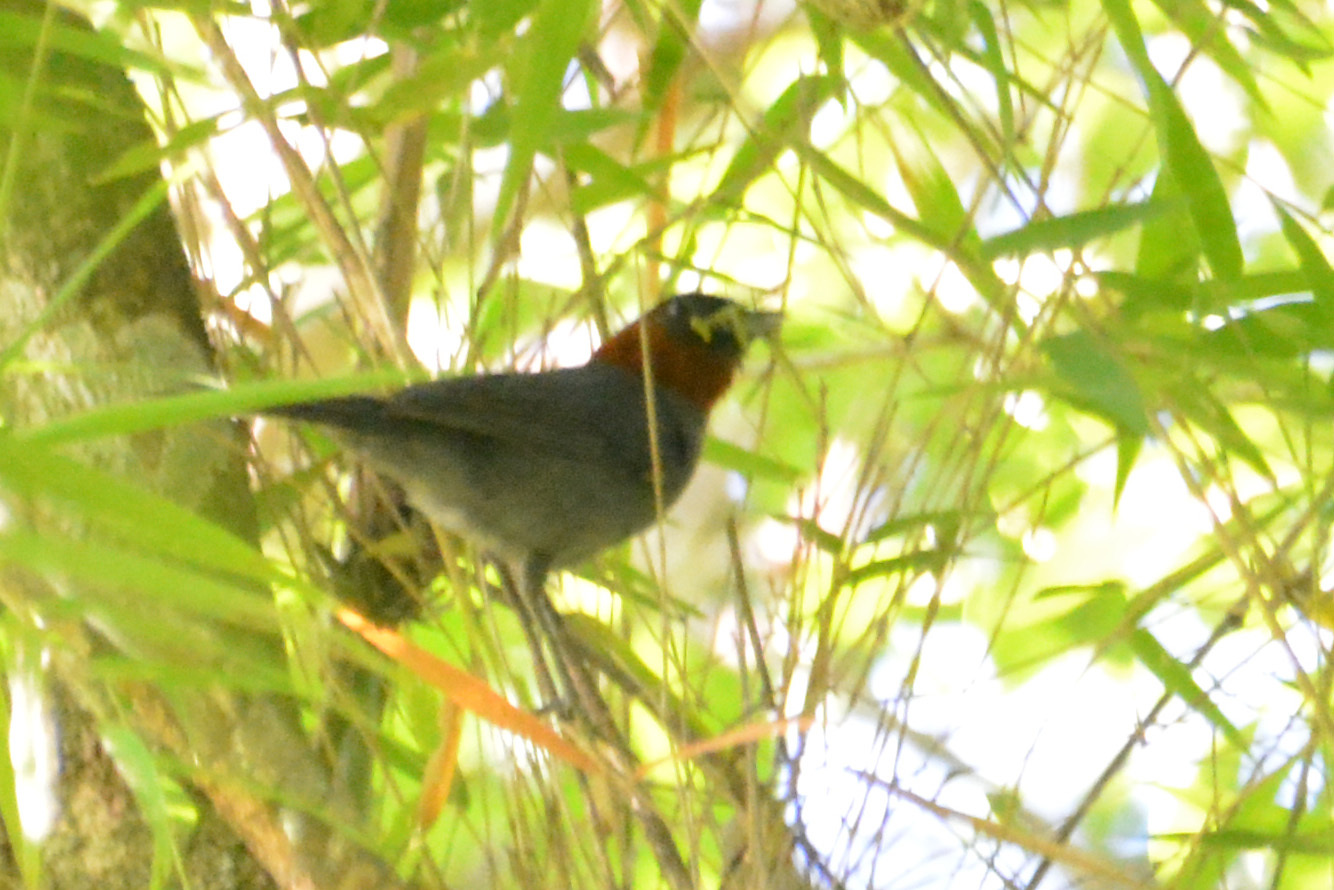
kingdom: Animalia
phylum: Chordata
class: Aves
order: Passeriformes
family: Thraupidae
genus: Thlypopsis
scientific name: Thlypopsis pyrrhocoma
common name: Chestnut-headed tanager
